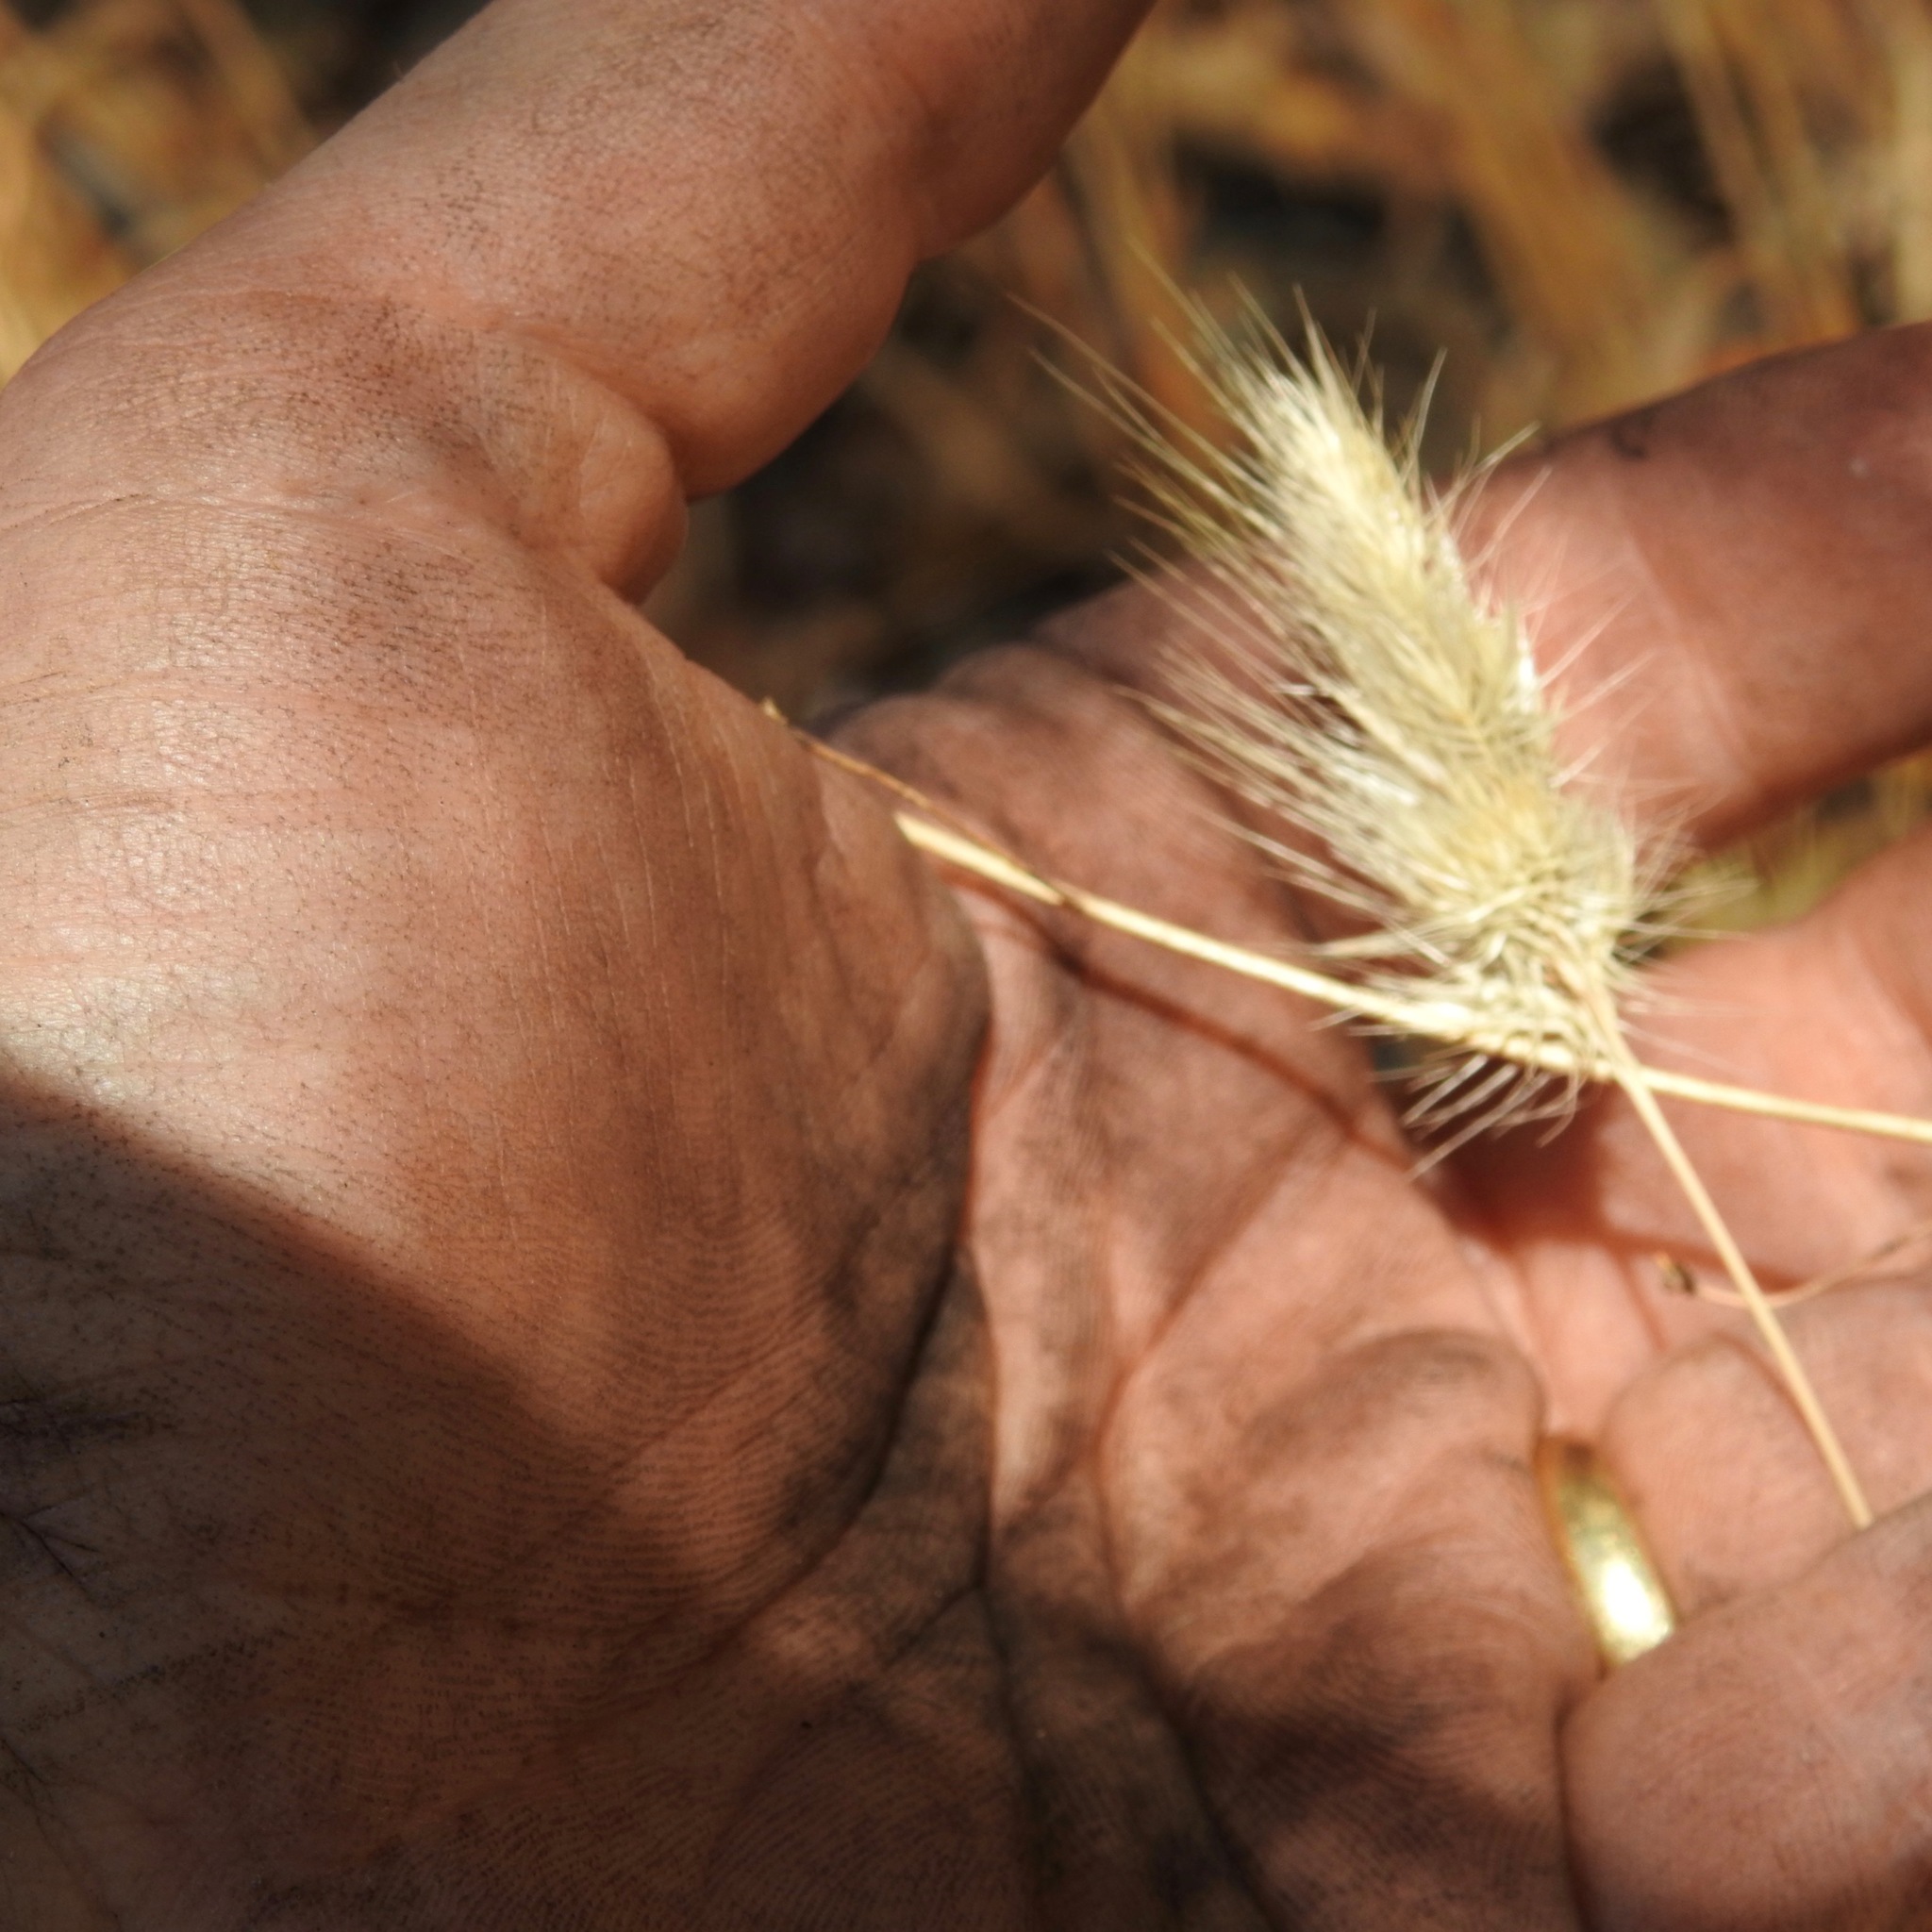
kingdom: Plantae
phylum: Tracheophyta
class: Liliopsida
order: Poales
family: Poaceae
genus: Cynosurus
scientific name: Cynosurus echinatus
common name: Rough dog's-tail
